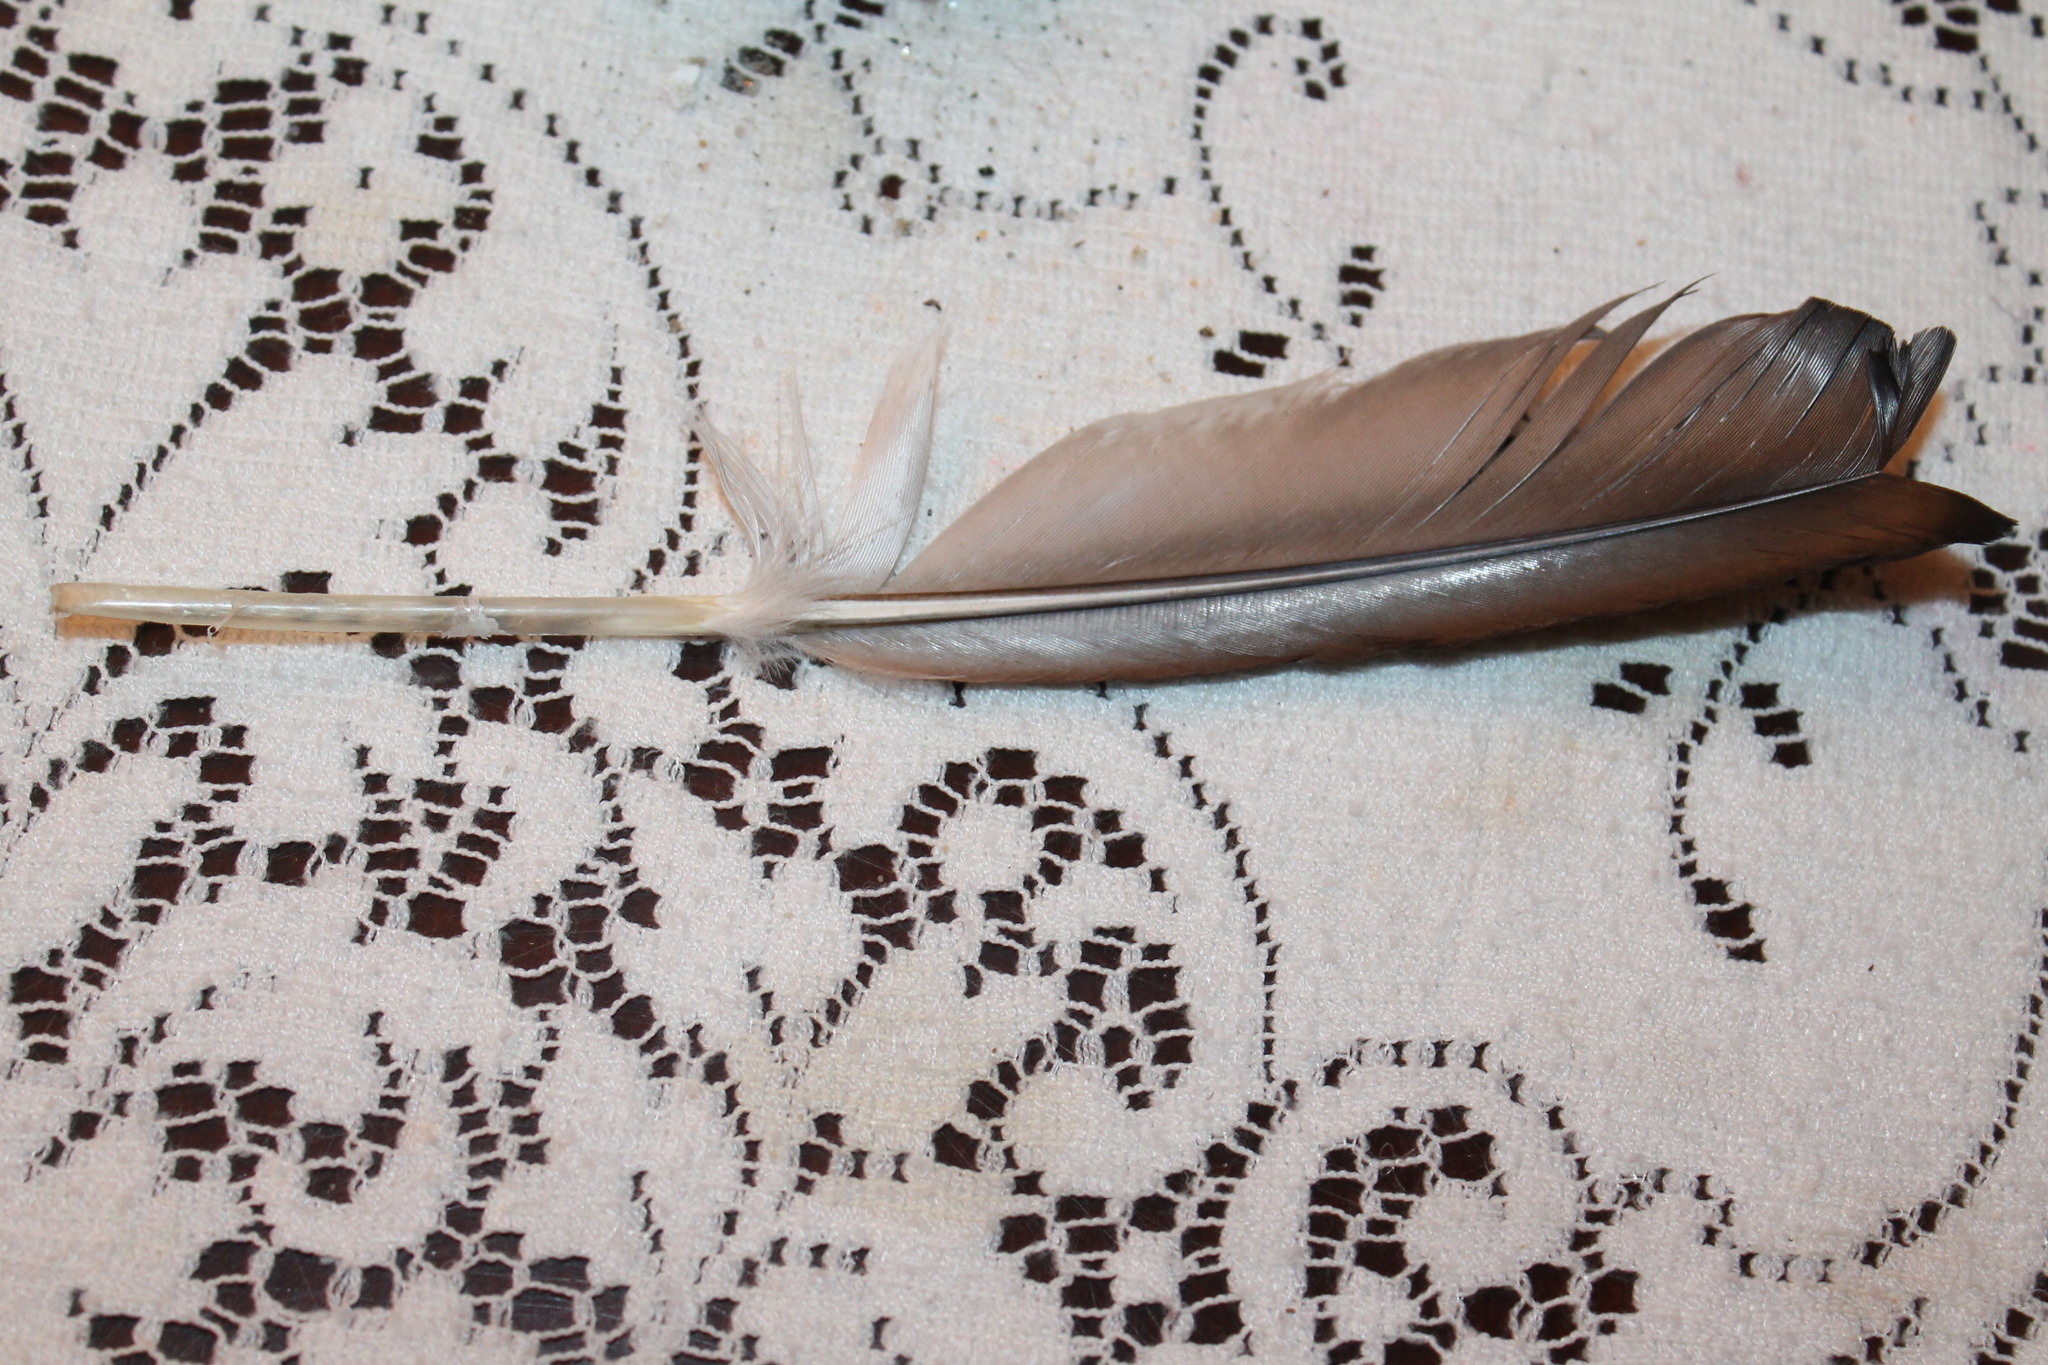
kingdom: Animalia
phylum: Chordata
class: Aves
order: Gaviiformes
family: Gaviidae
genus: Gavia
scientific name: Gavia immer
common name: Common loon
